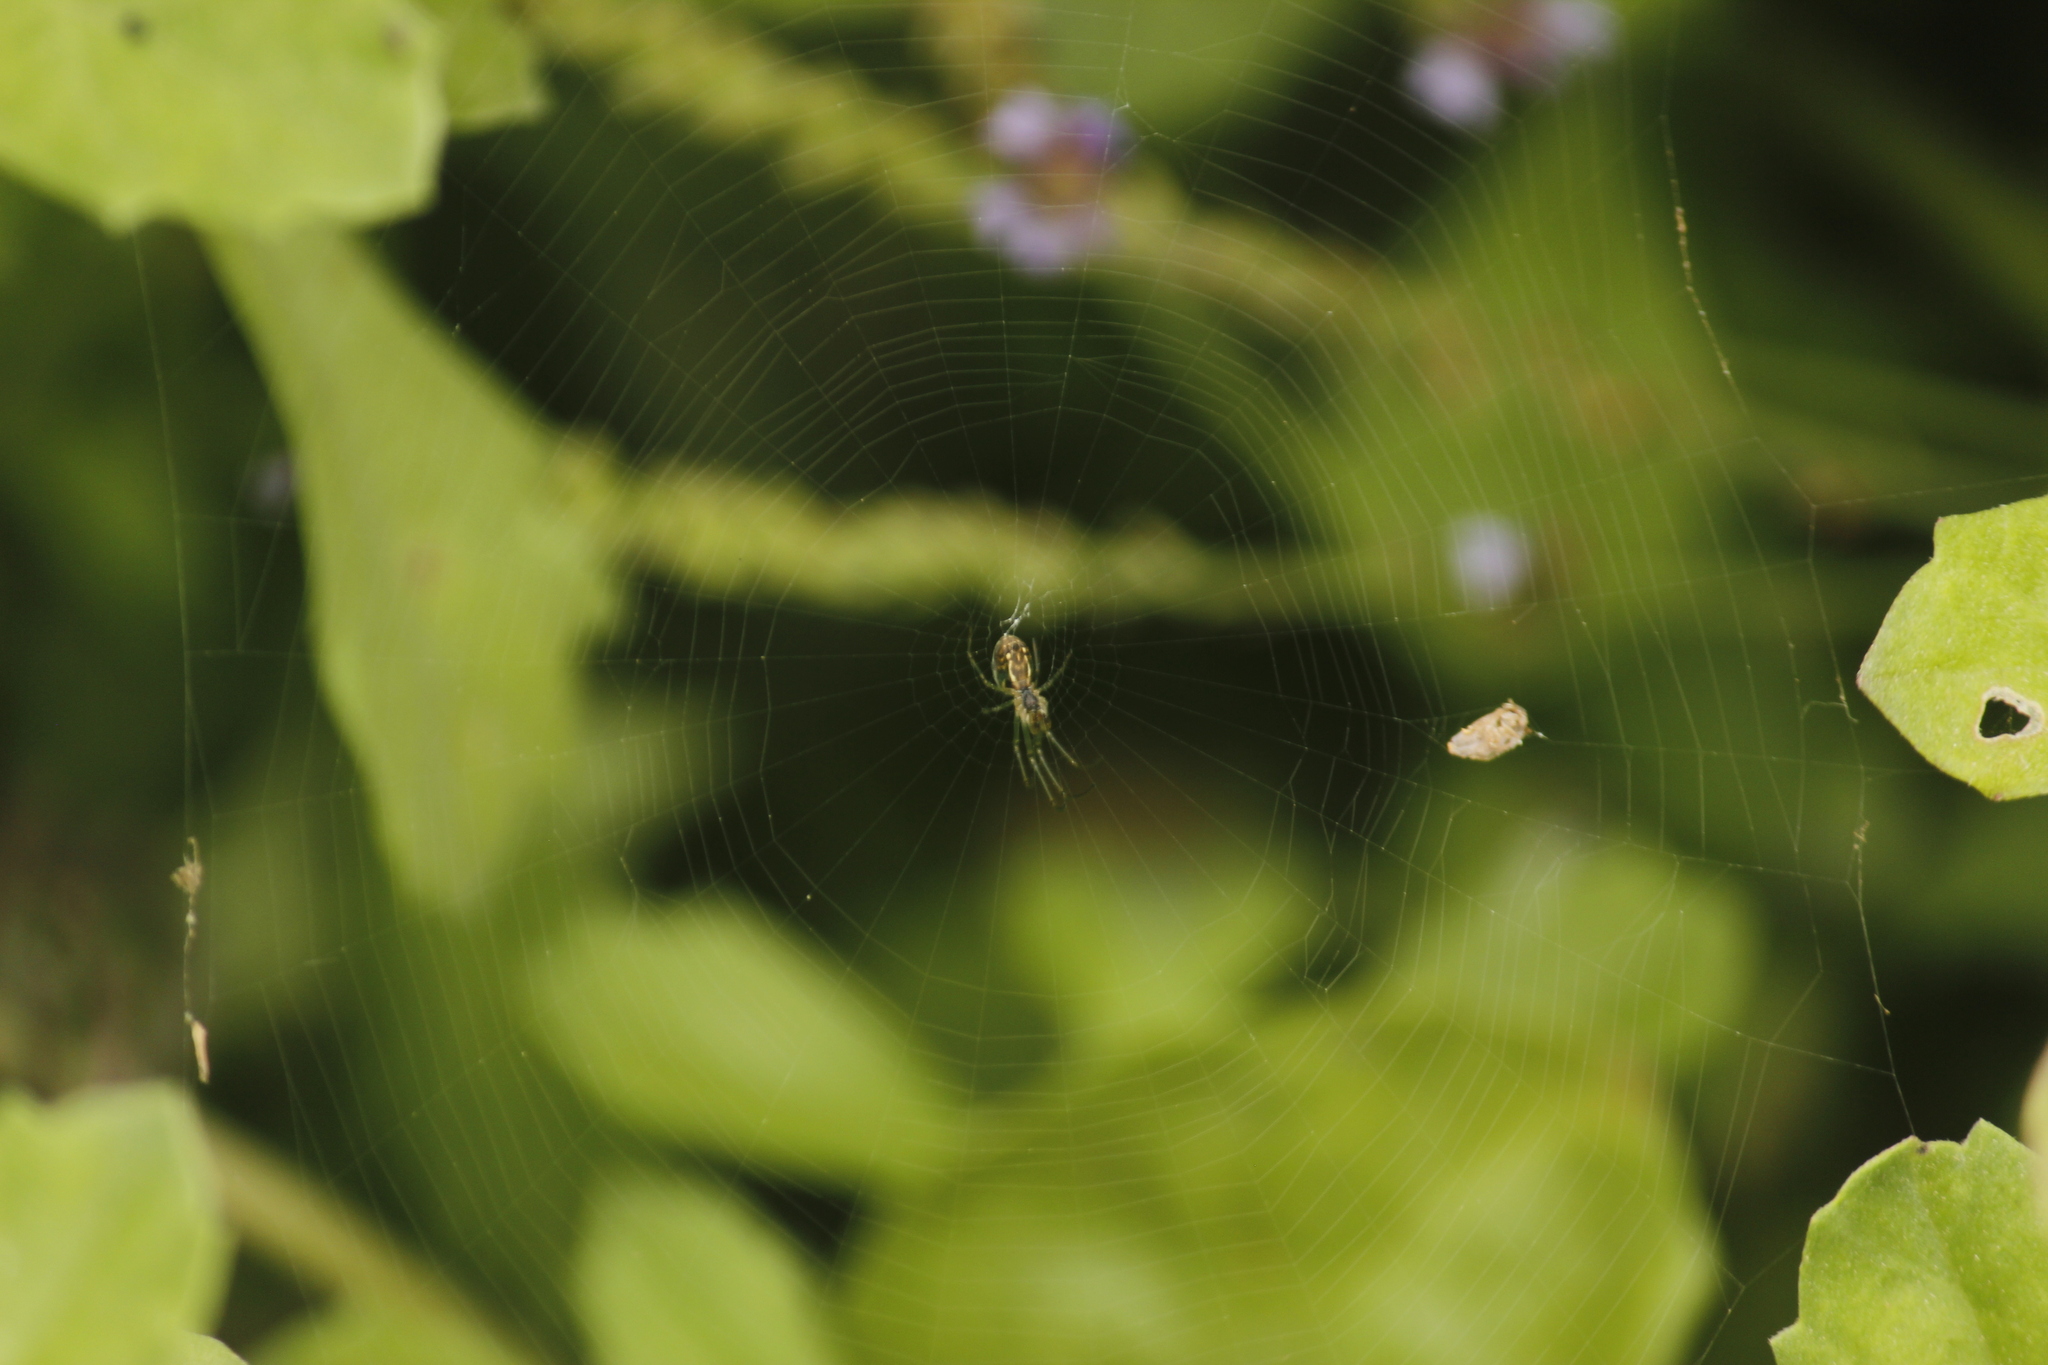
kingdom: Animalia
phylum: Arthropoda
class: Arachnida
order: Araneae
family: Tetragnathidae
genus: Leucauge
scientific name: Leucauge volupis
